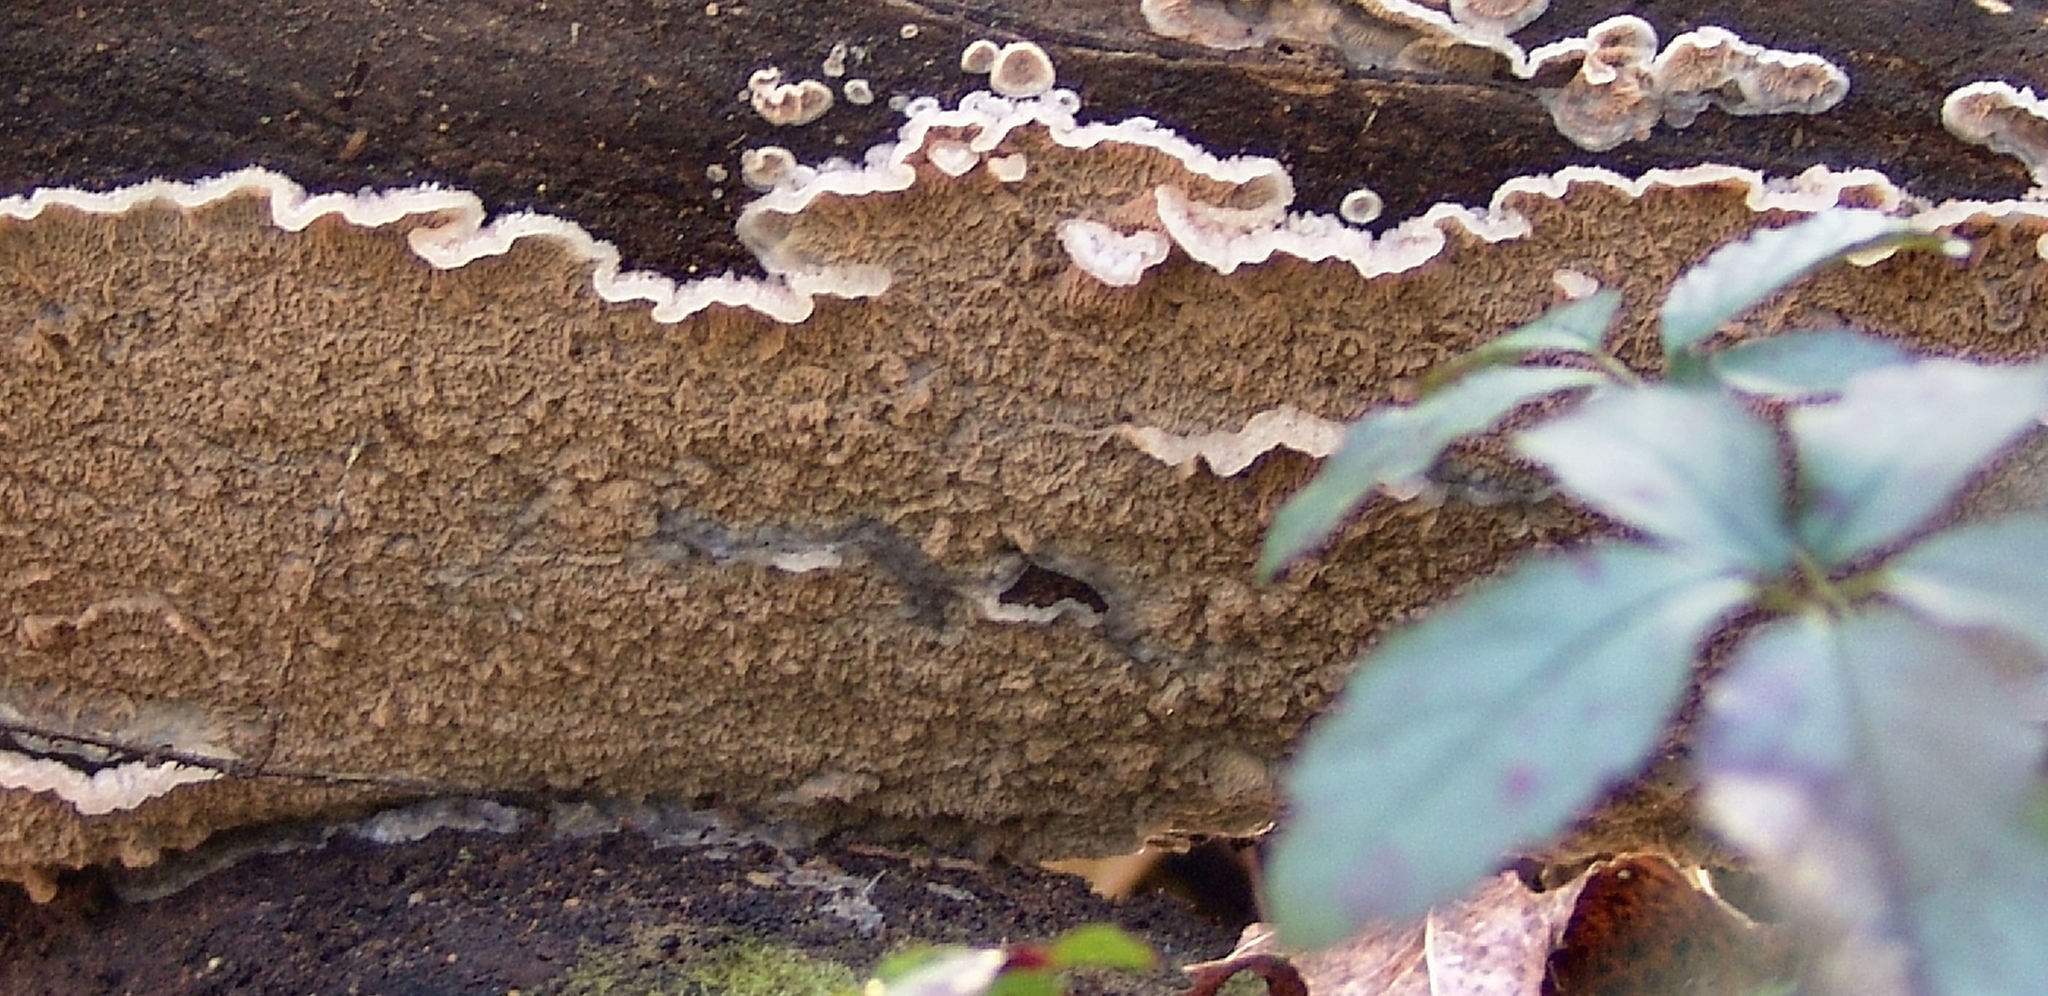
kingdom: Fungi
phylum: Basidiomycota
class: Agaricomycetes
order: Polyporales
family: Meruliaceae
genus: Phlebia
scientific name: Phlebia tremellosa
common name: Jelly rot
